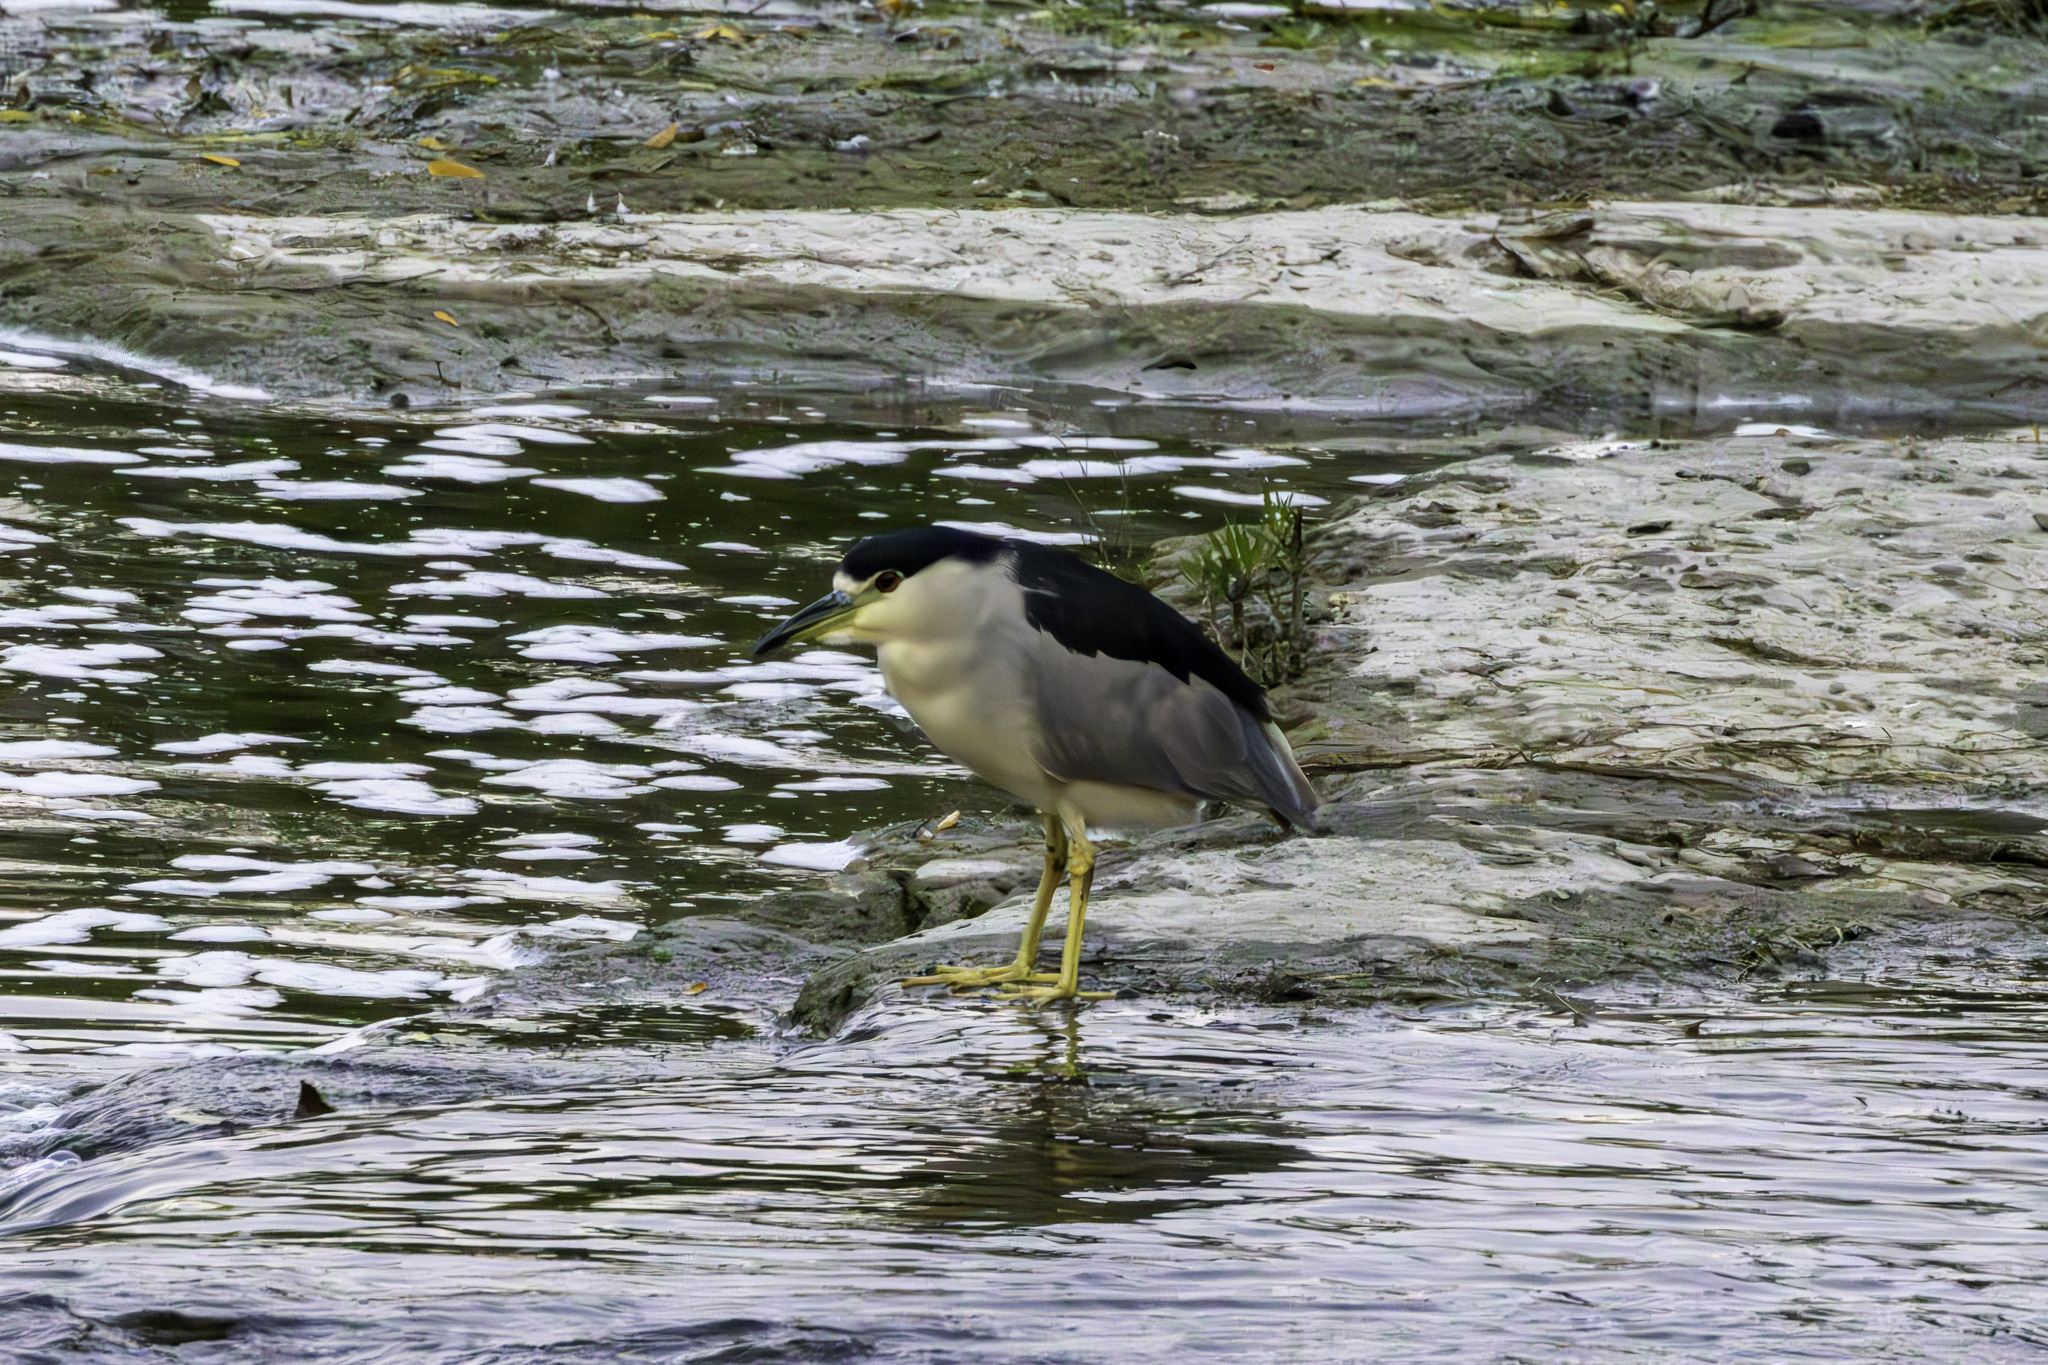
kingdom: Animalia
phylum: Chordata
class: Aves
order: Pelecaniformes
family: Ardeidae
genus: Nycticorax
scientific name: Nycticorax nycticorax
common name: Black-crowned night heron
